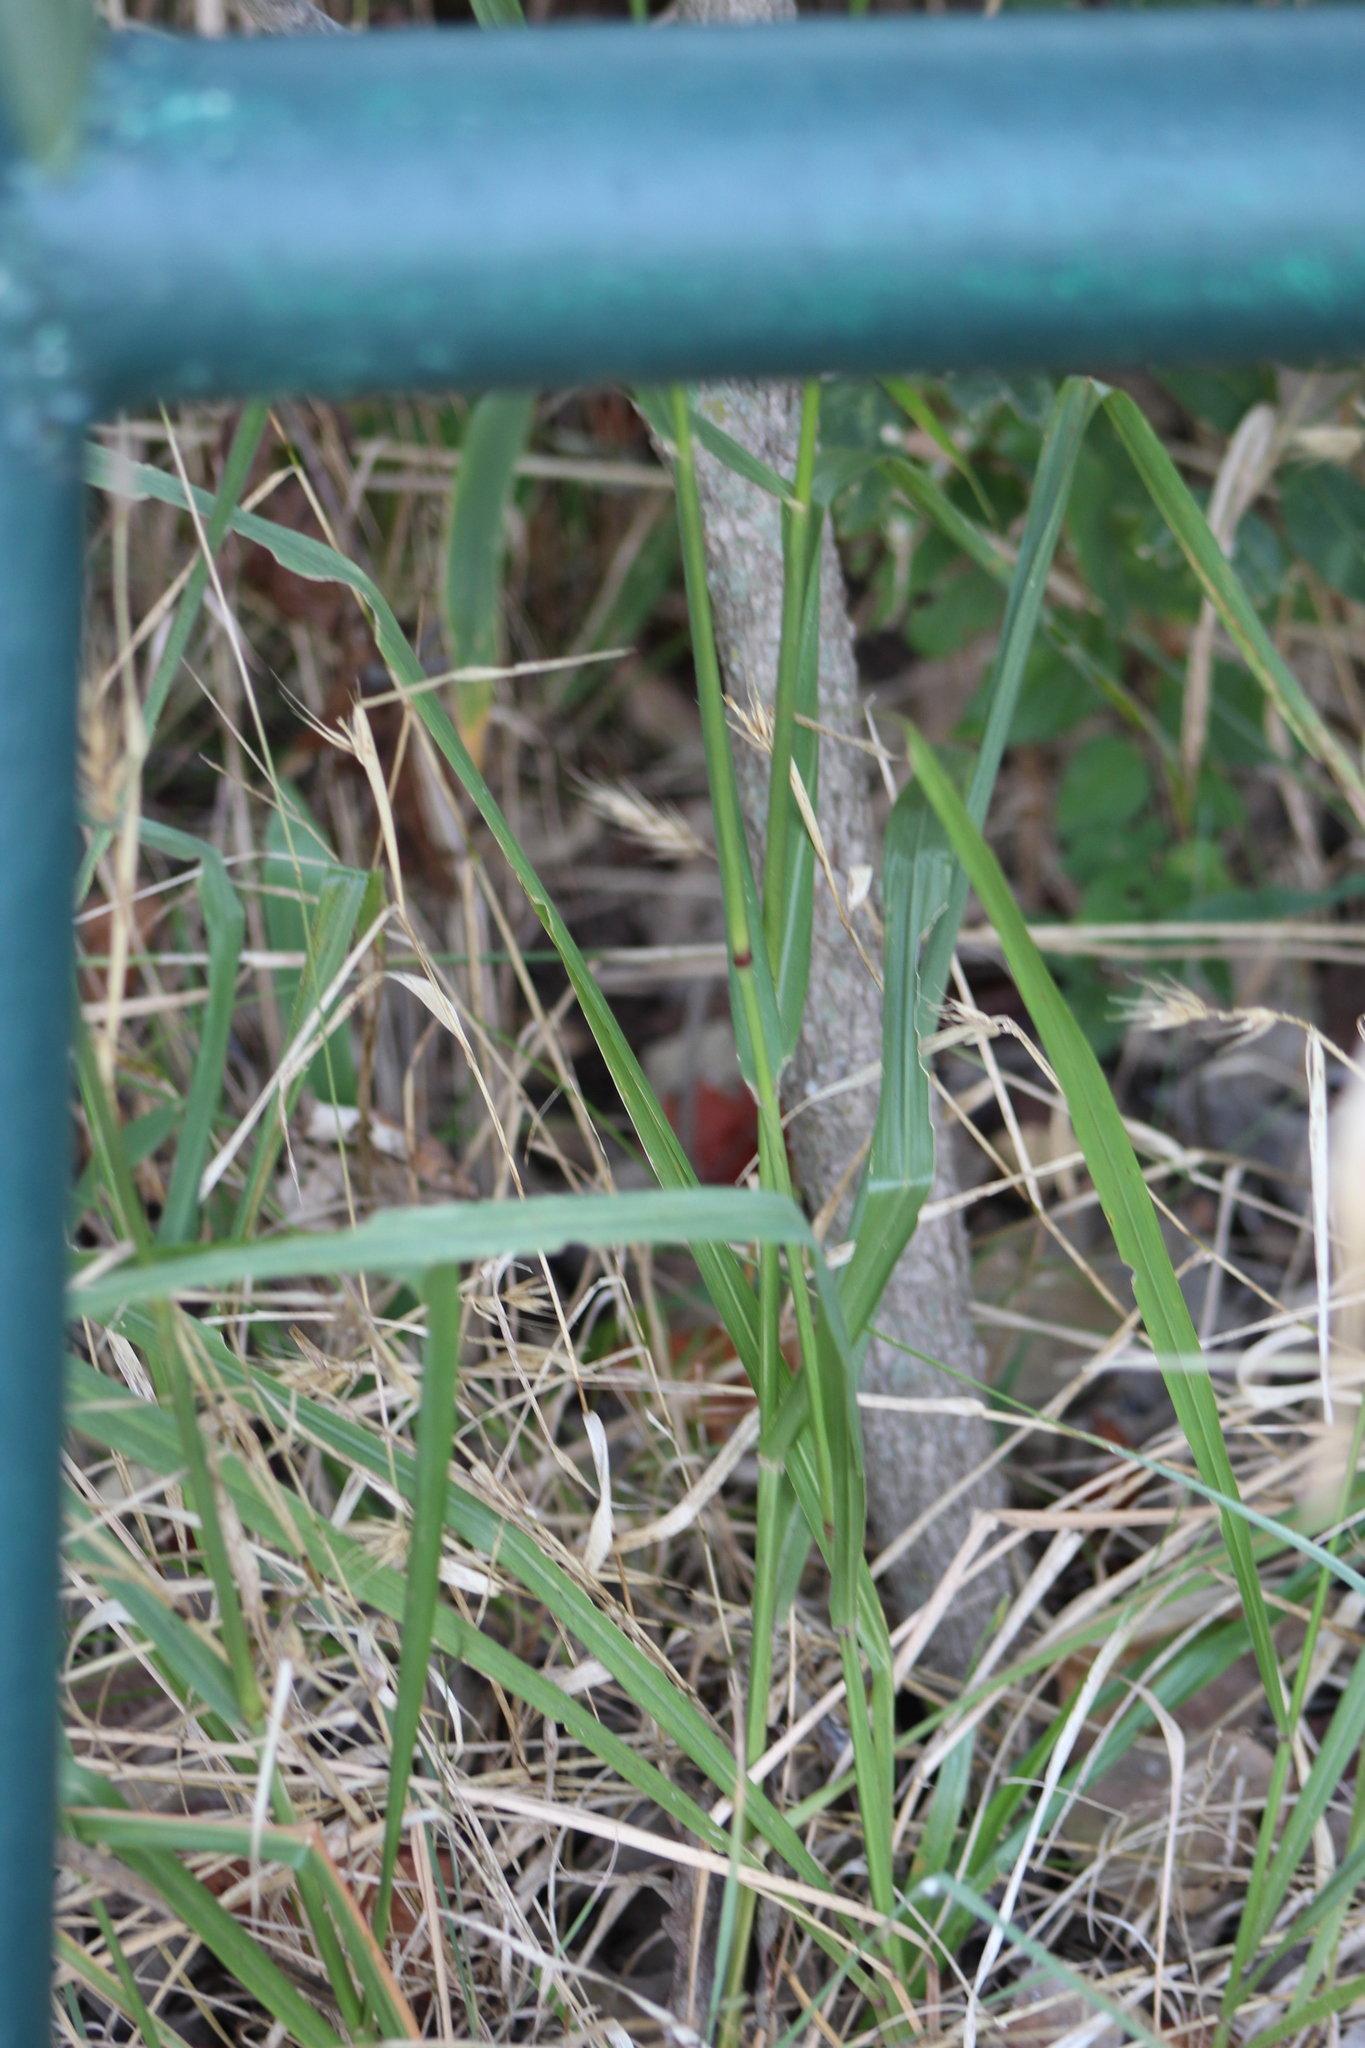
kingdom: Plantae
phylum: Tracheophyta
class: Liliopsida
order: Poales
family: Poaceae
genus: Tridens
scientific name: Tridens flavus
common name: Purpletop
